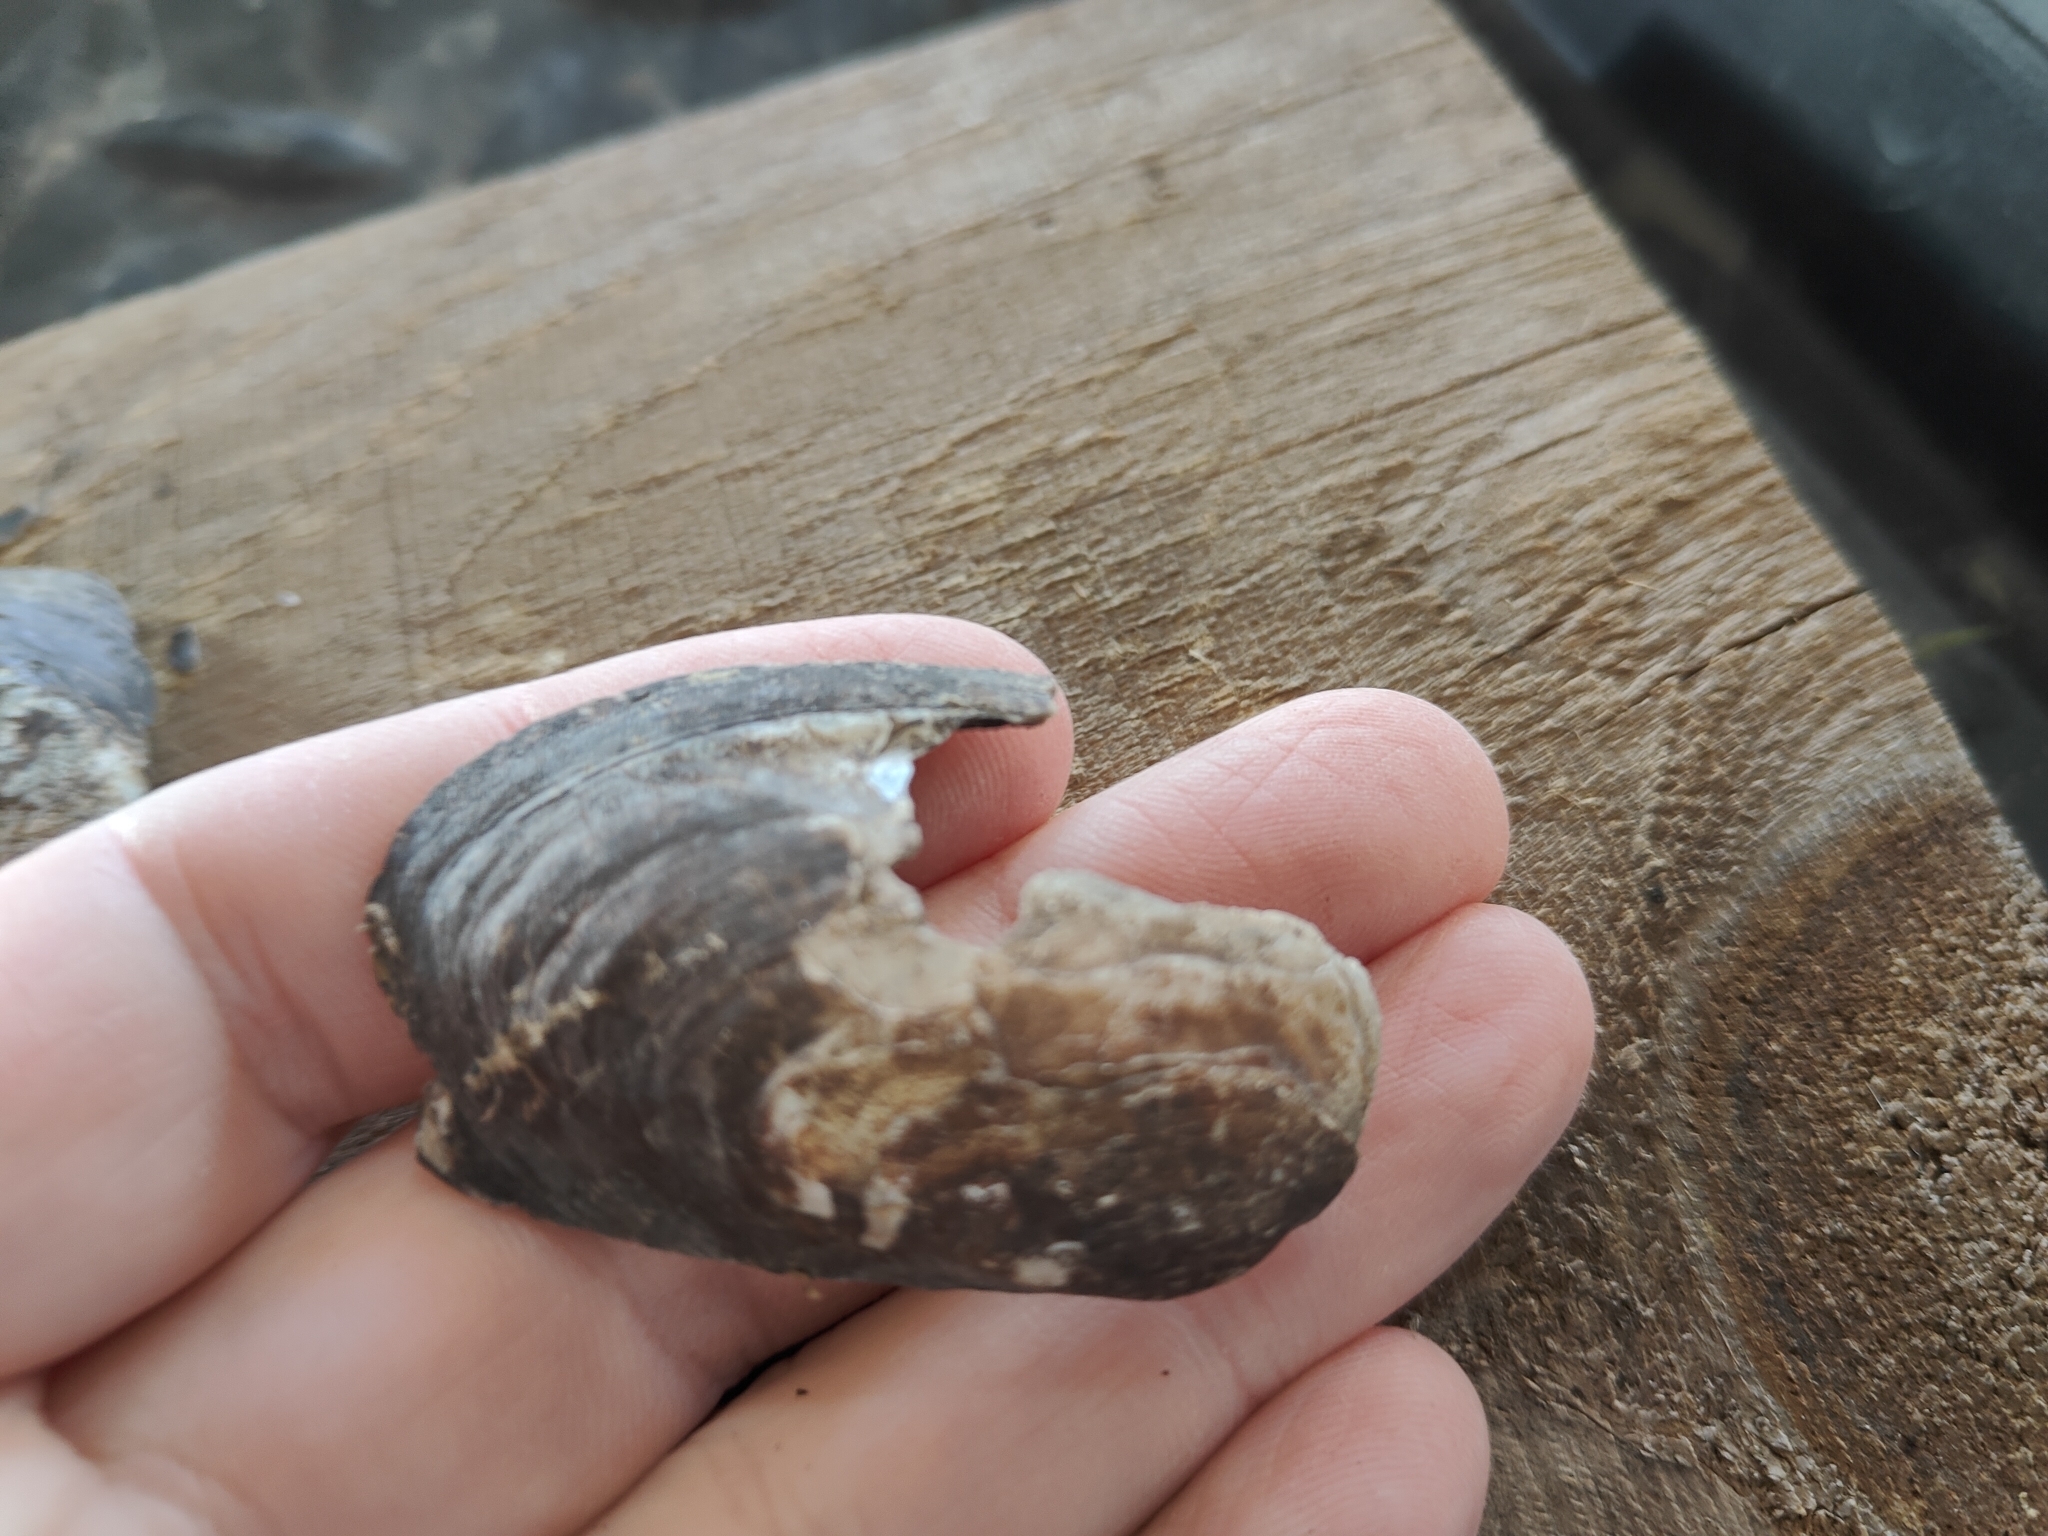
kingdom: Animalia
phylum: Mollusca
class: Bivalvia
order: Unionida
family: Unionidae
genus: Lampsilis
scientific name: Lampsilis siliquoidea
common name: Fatmucket
